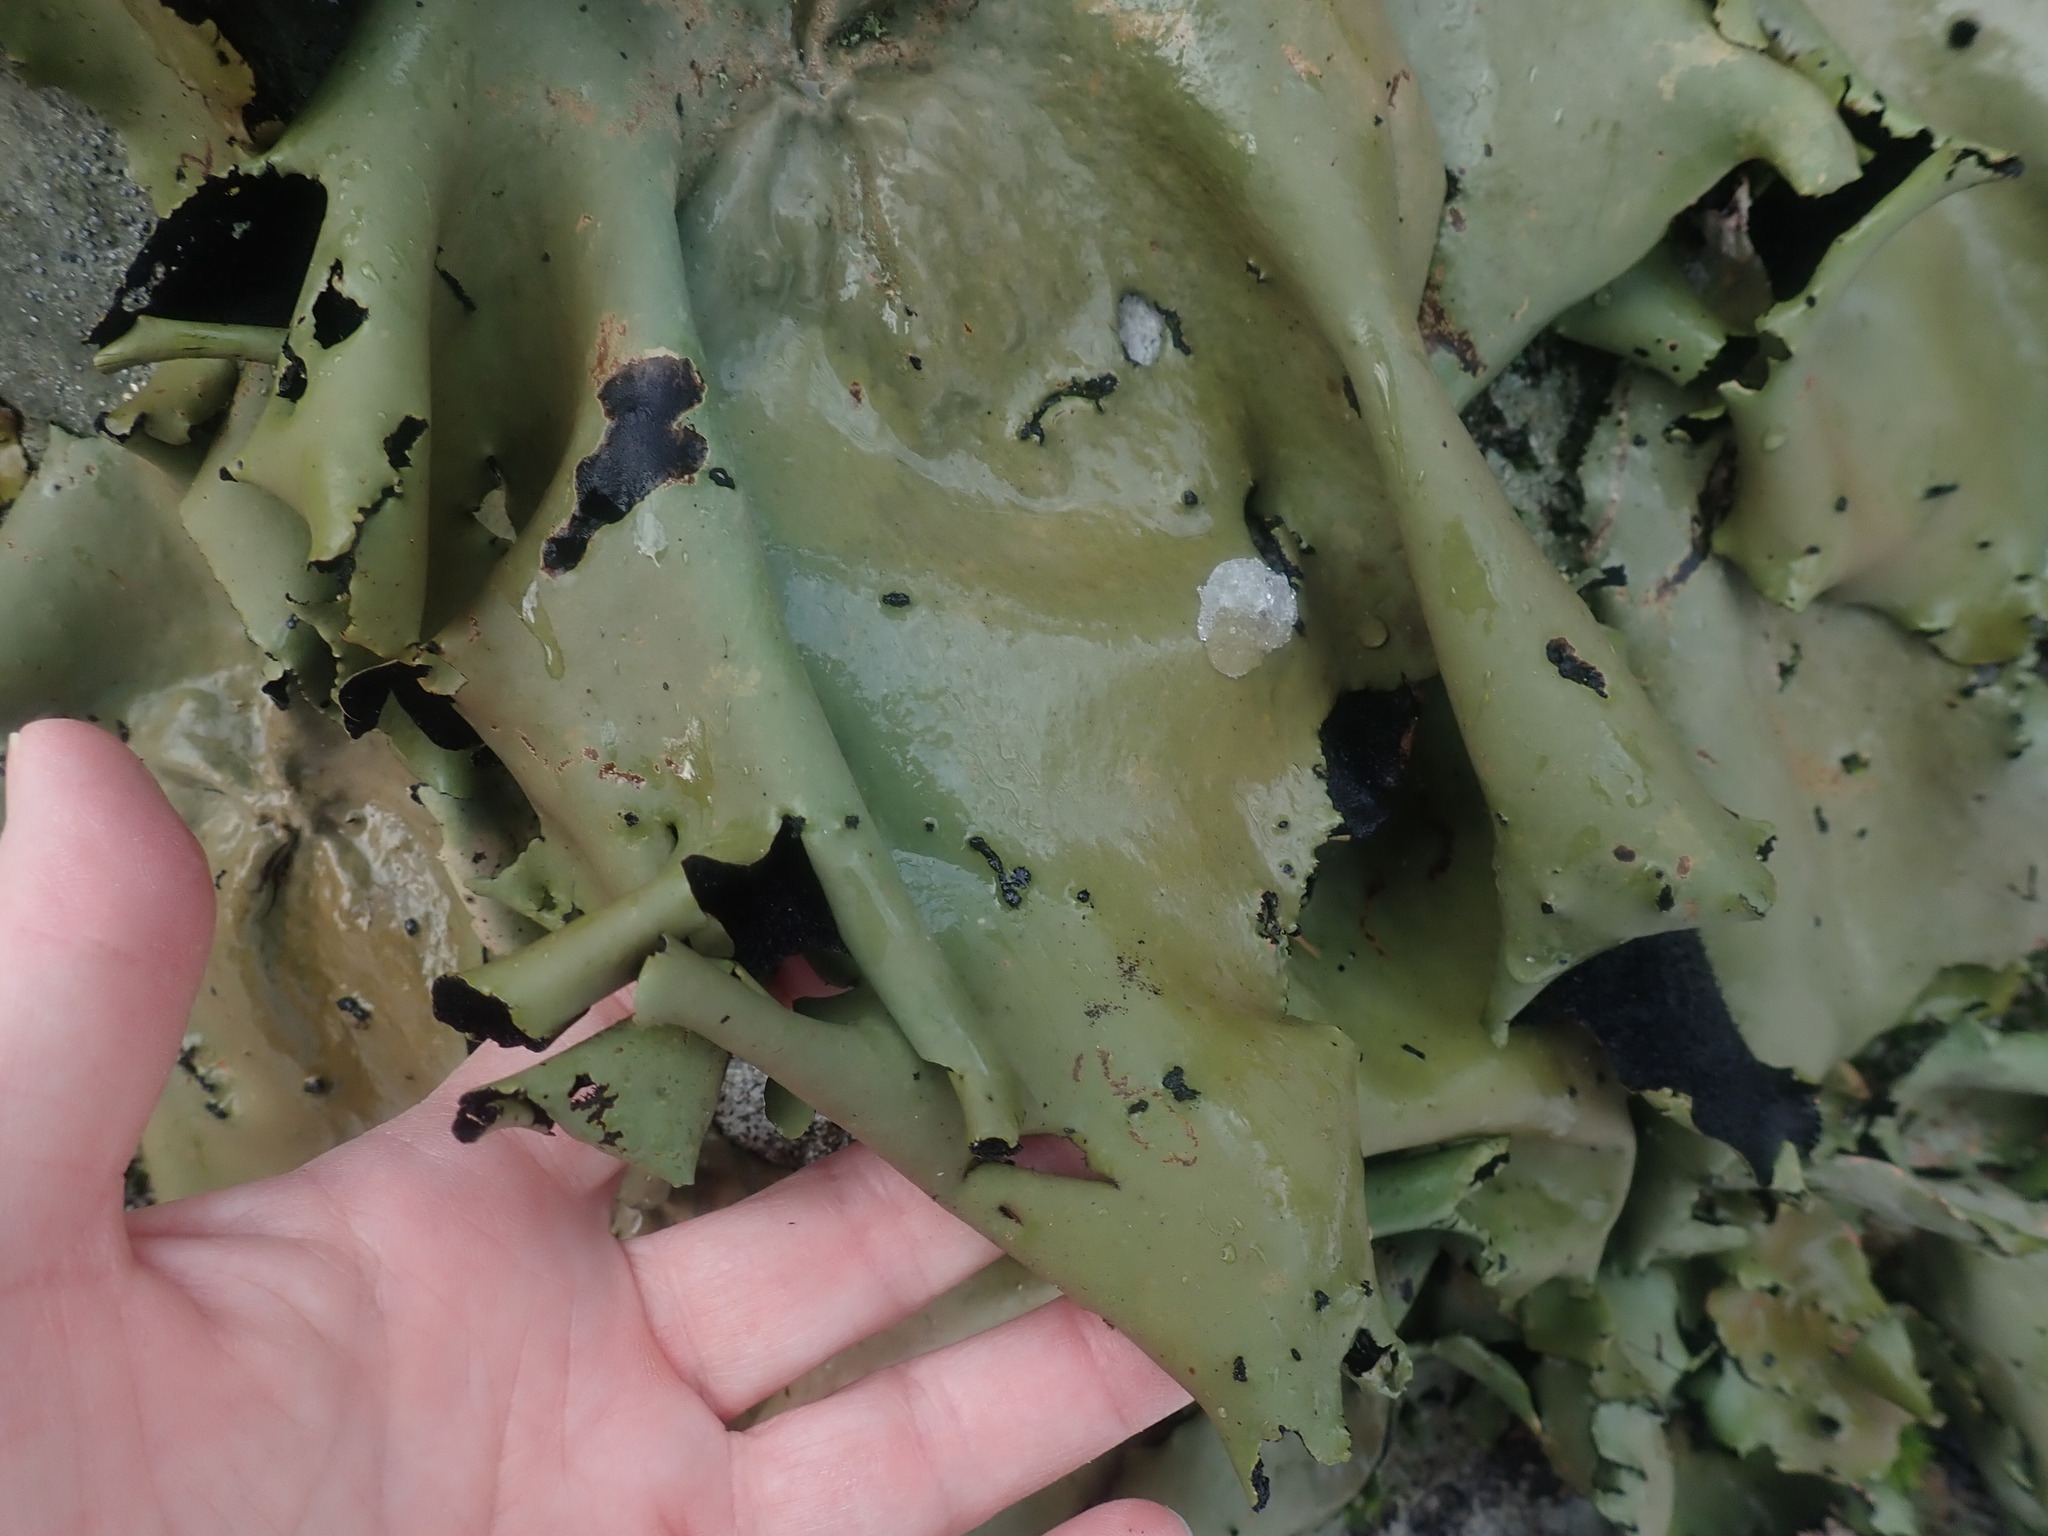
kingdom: Fungi
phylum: Ascomycota
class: Lecanoromycetes
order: Umbilicariales
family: Umbilicariaceae
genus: Umbilicaria
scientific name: Umbilicaria mammulata
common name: Smooth rock tripe
